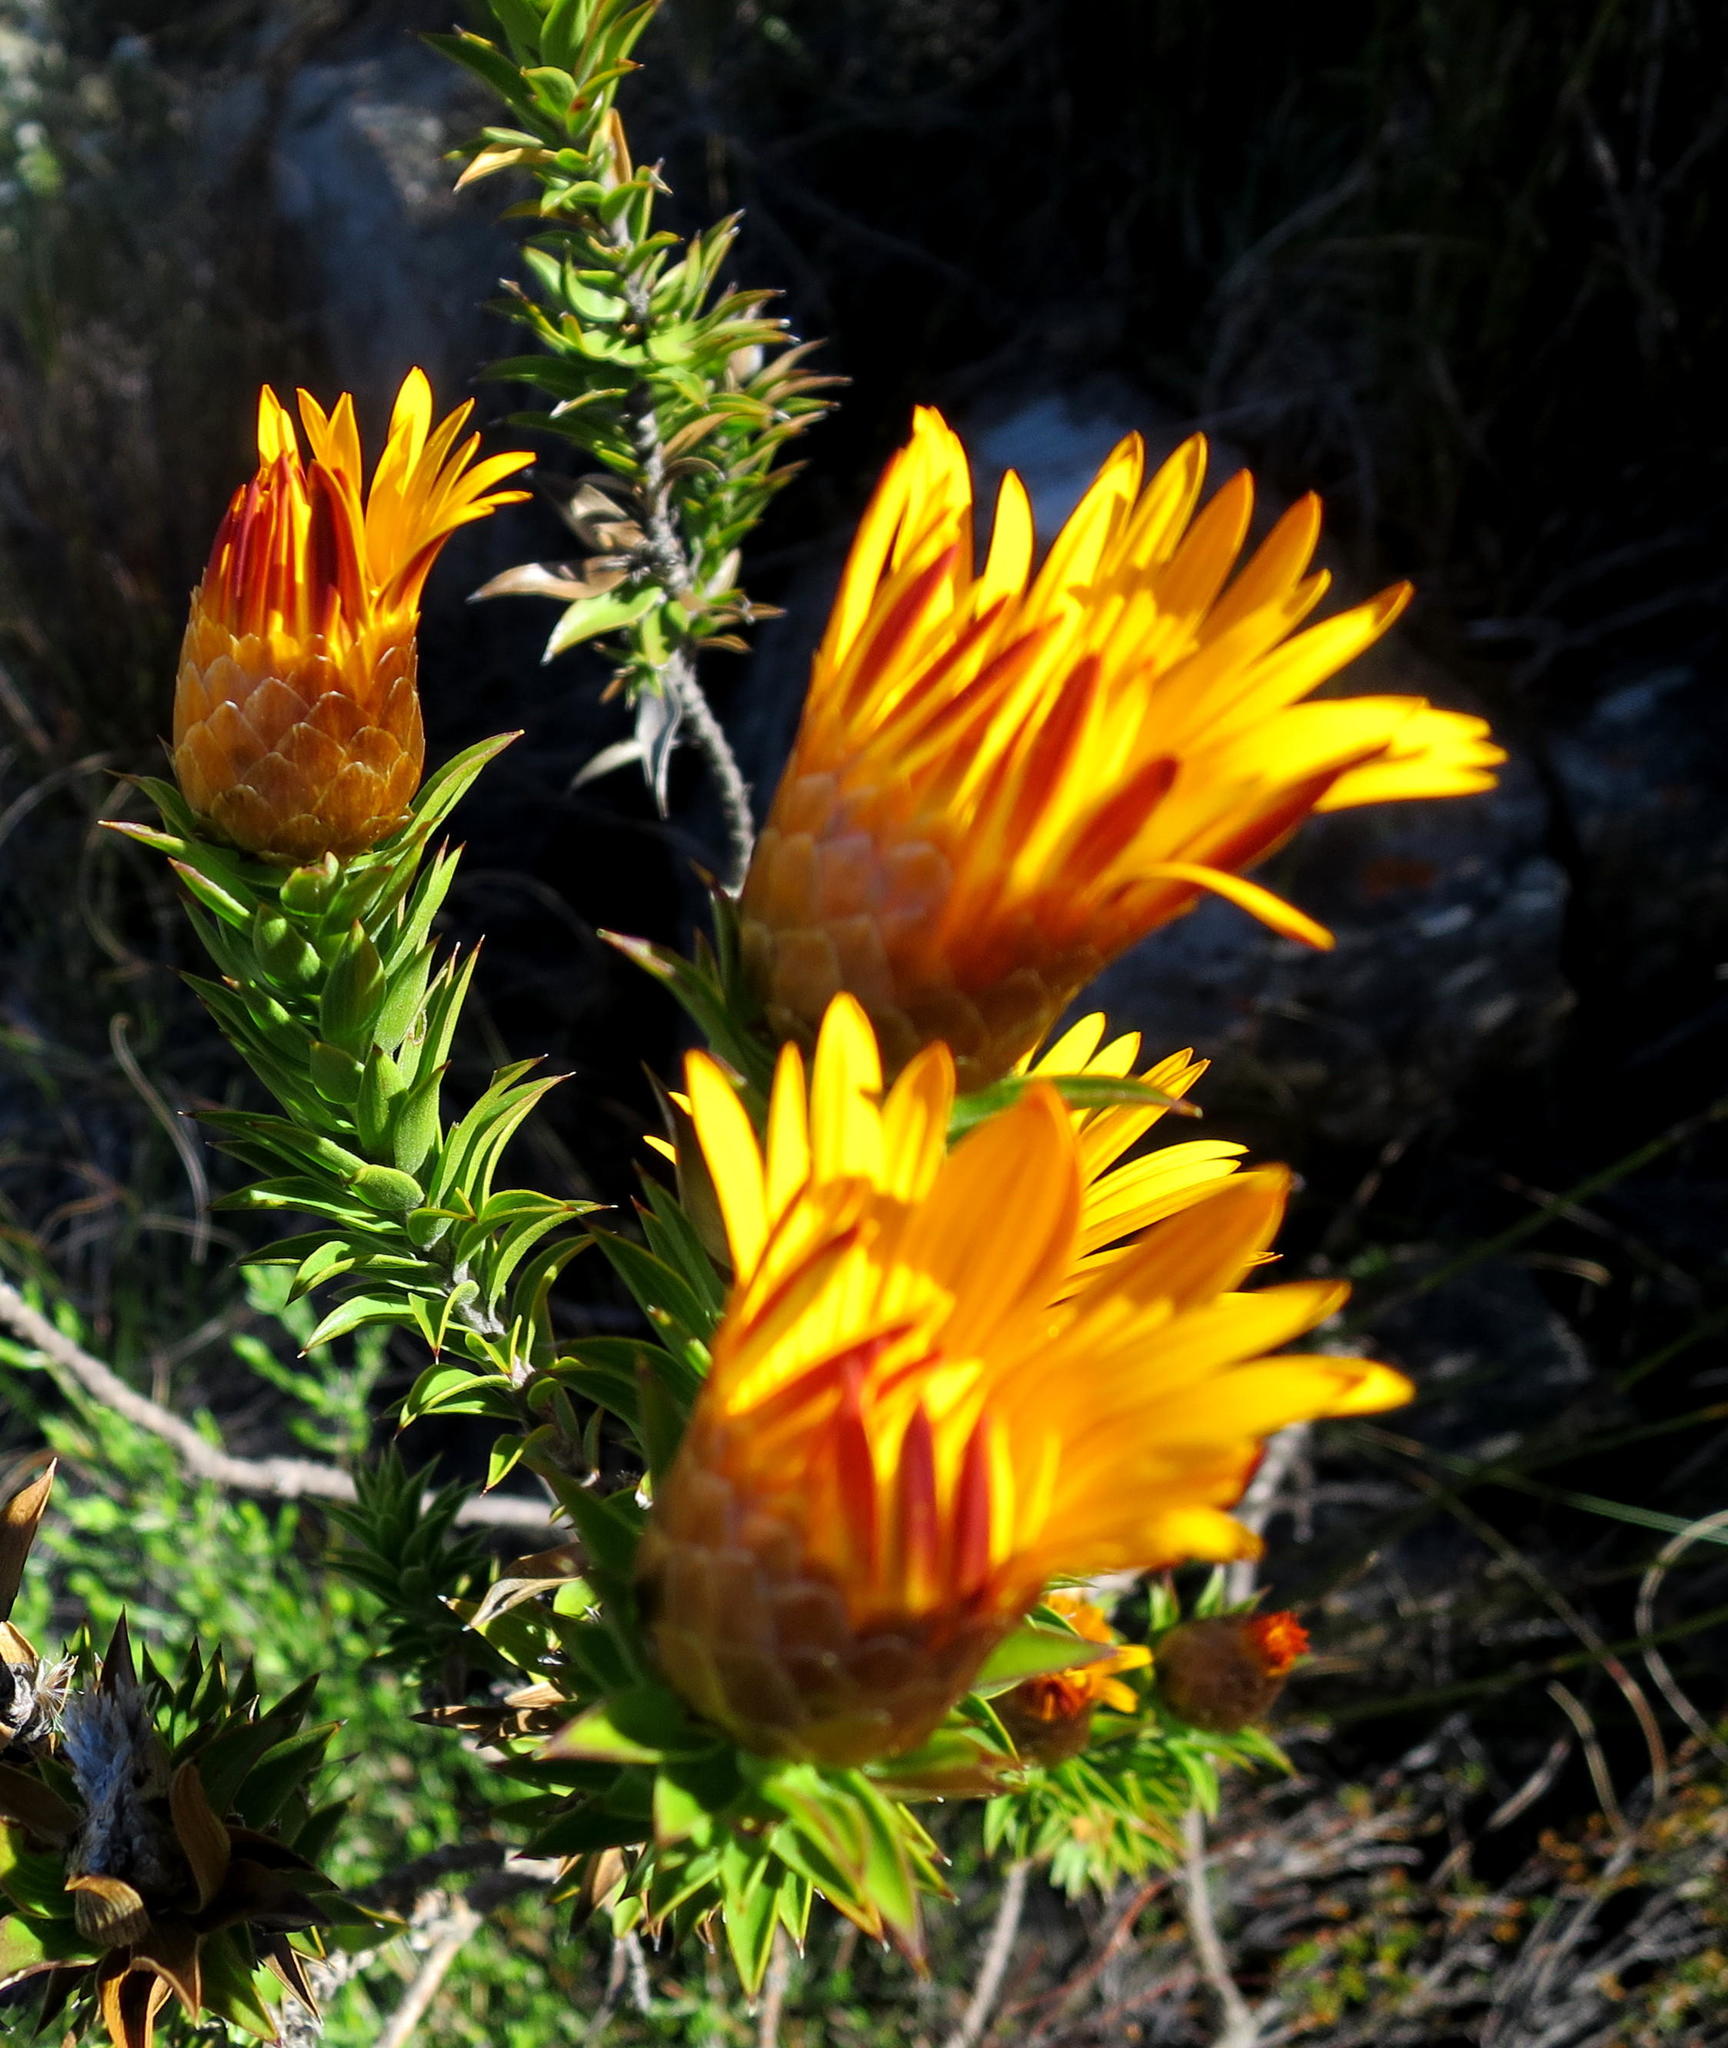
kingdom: Plantae
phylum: Tracheophyta
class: Magnoliopsida
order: Asterales
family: Asteraceae
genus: Oedera
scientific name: Oedera speciosa
